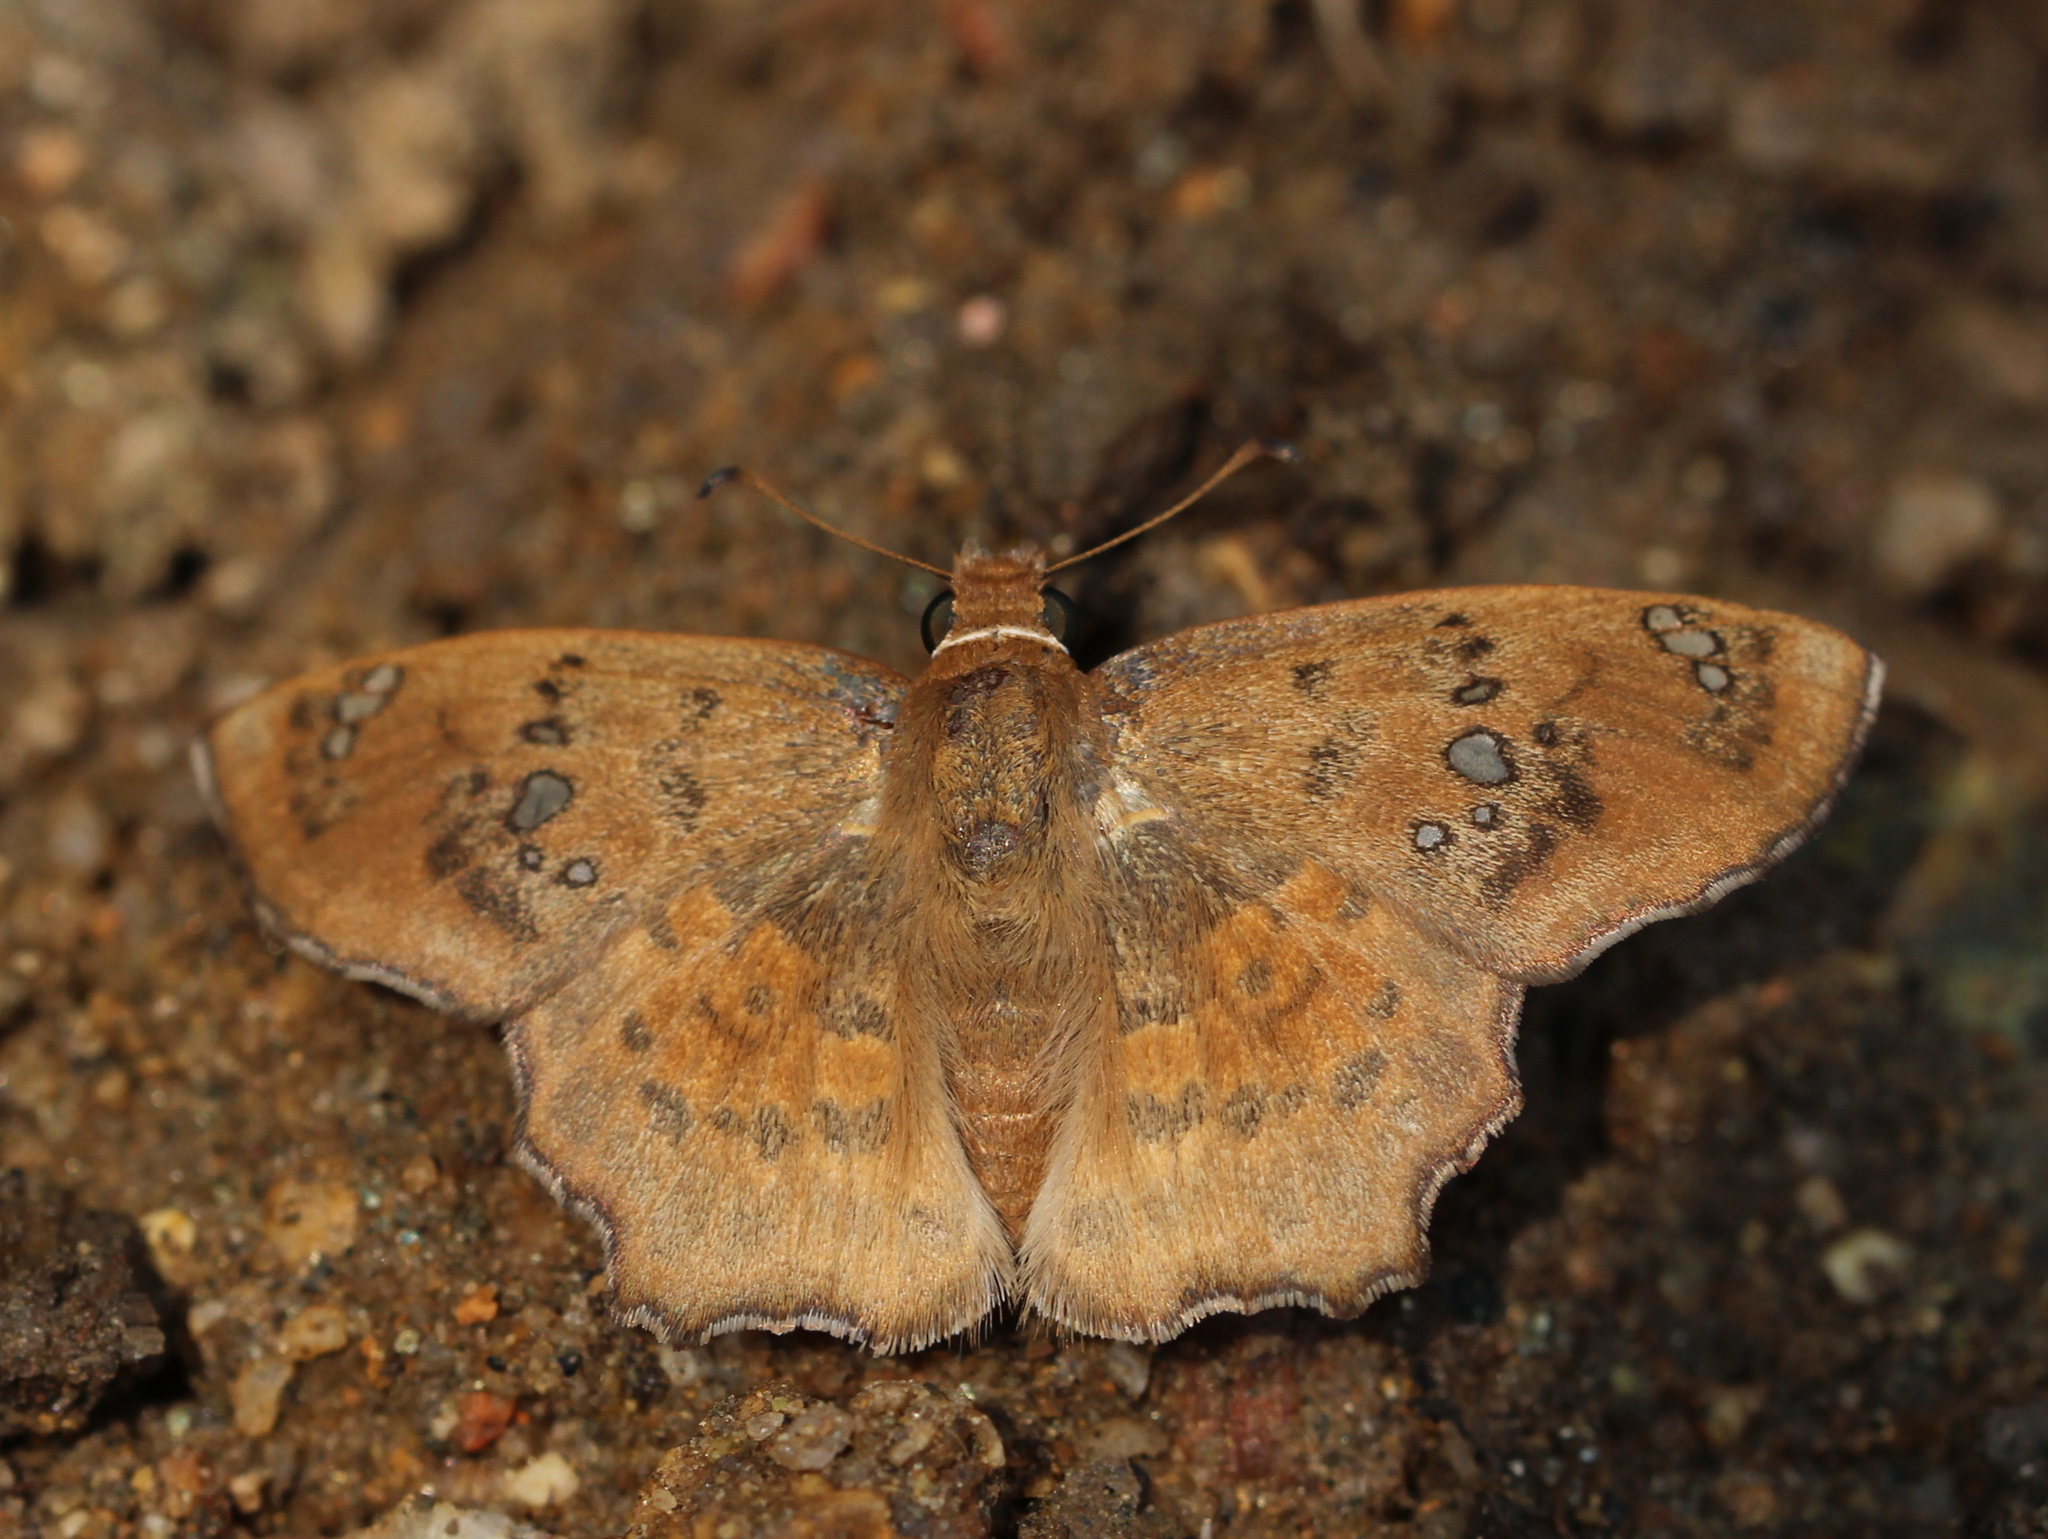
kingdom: Animalia
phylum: Arthropoda
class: Insecta
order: Lepidoptera
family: Hesperiidae
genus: Caprona
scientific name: Caprona ransonnettii
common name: Golden angle
